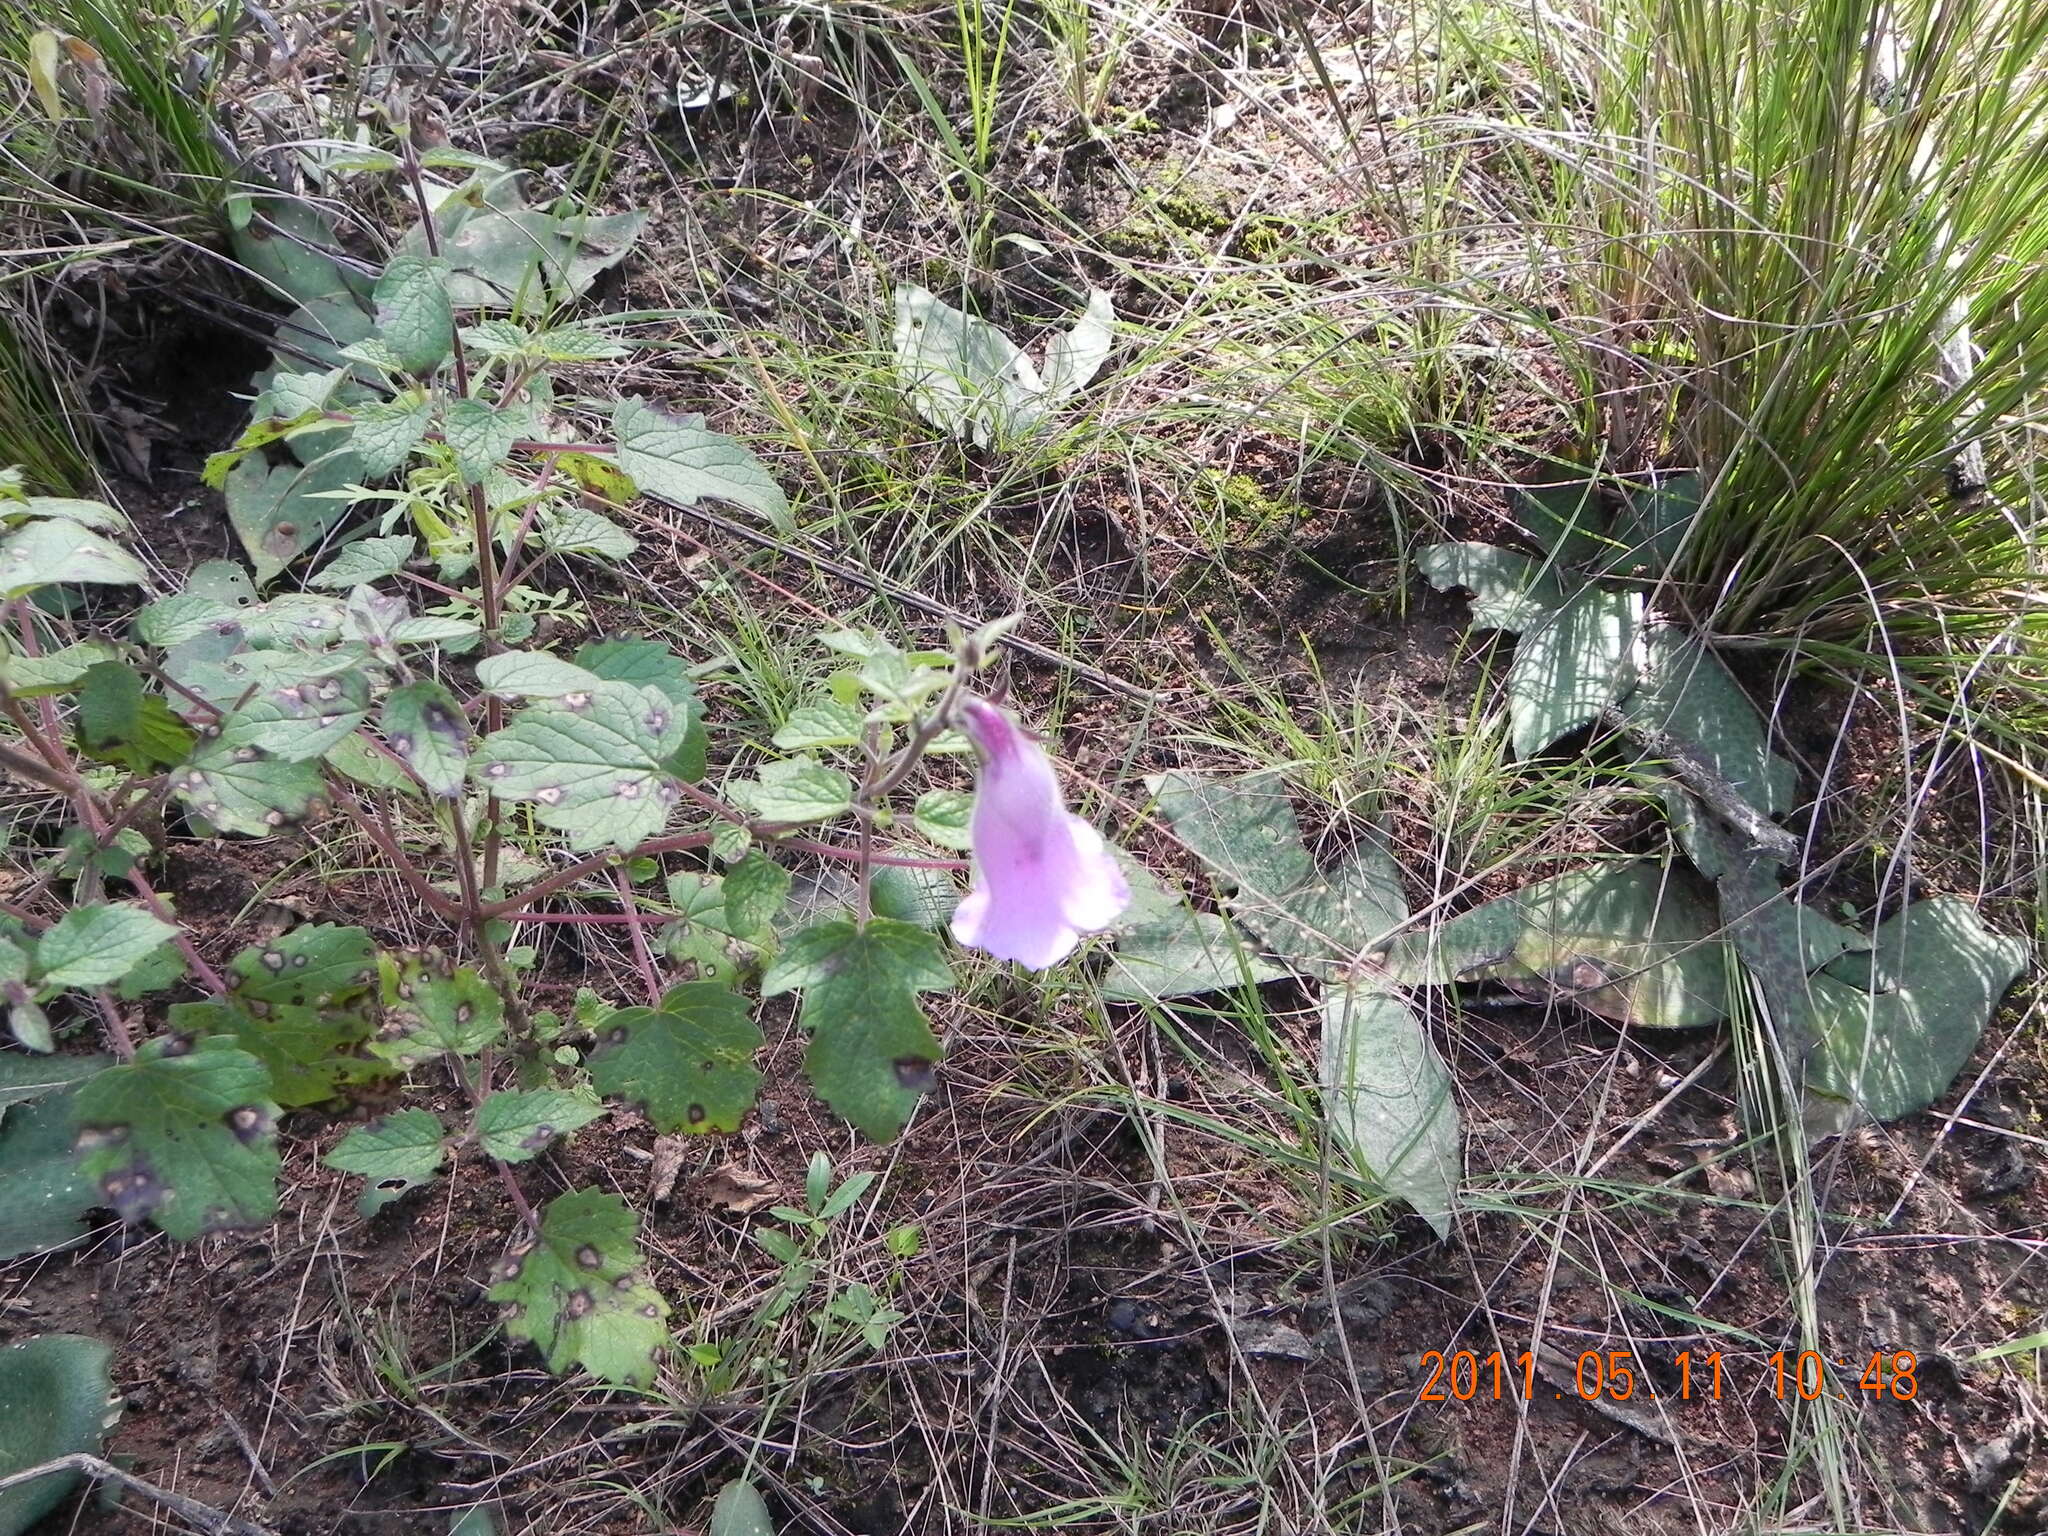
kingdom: Plantae
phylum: Tracheophyta
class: Magnoliopsida
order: Lamiales
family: Pedaliaceae
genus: Sesamum
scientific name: Sesamum trilobum
